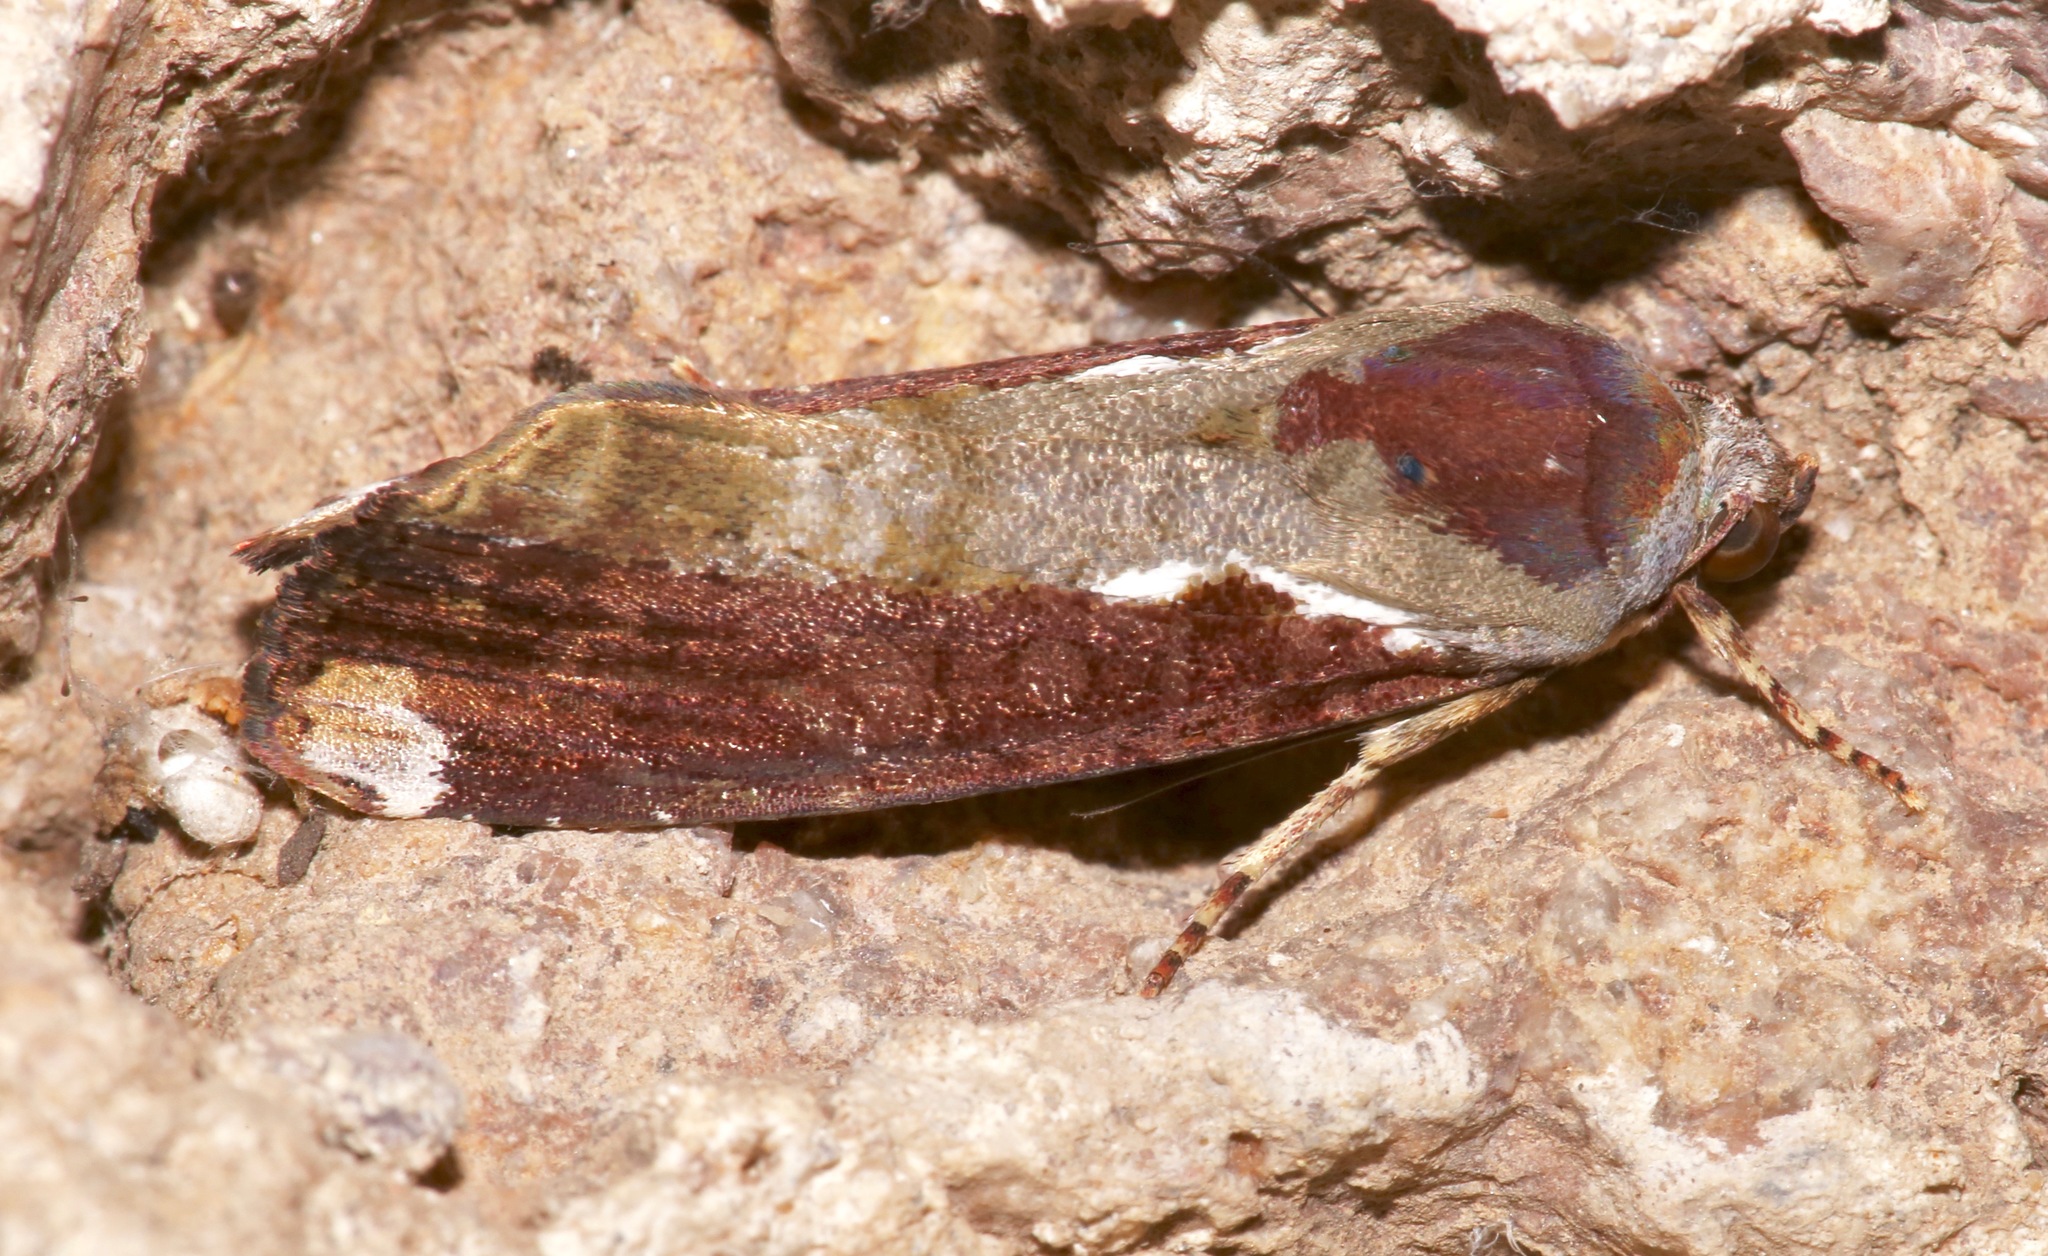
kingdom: Animalia
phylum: Arthropoda
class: Insecta
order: Lepidoptera
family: Noctuidae
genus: Magusa
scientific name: Magusa divaricata
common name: Orb narrow-winged moth
